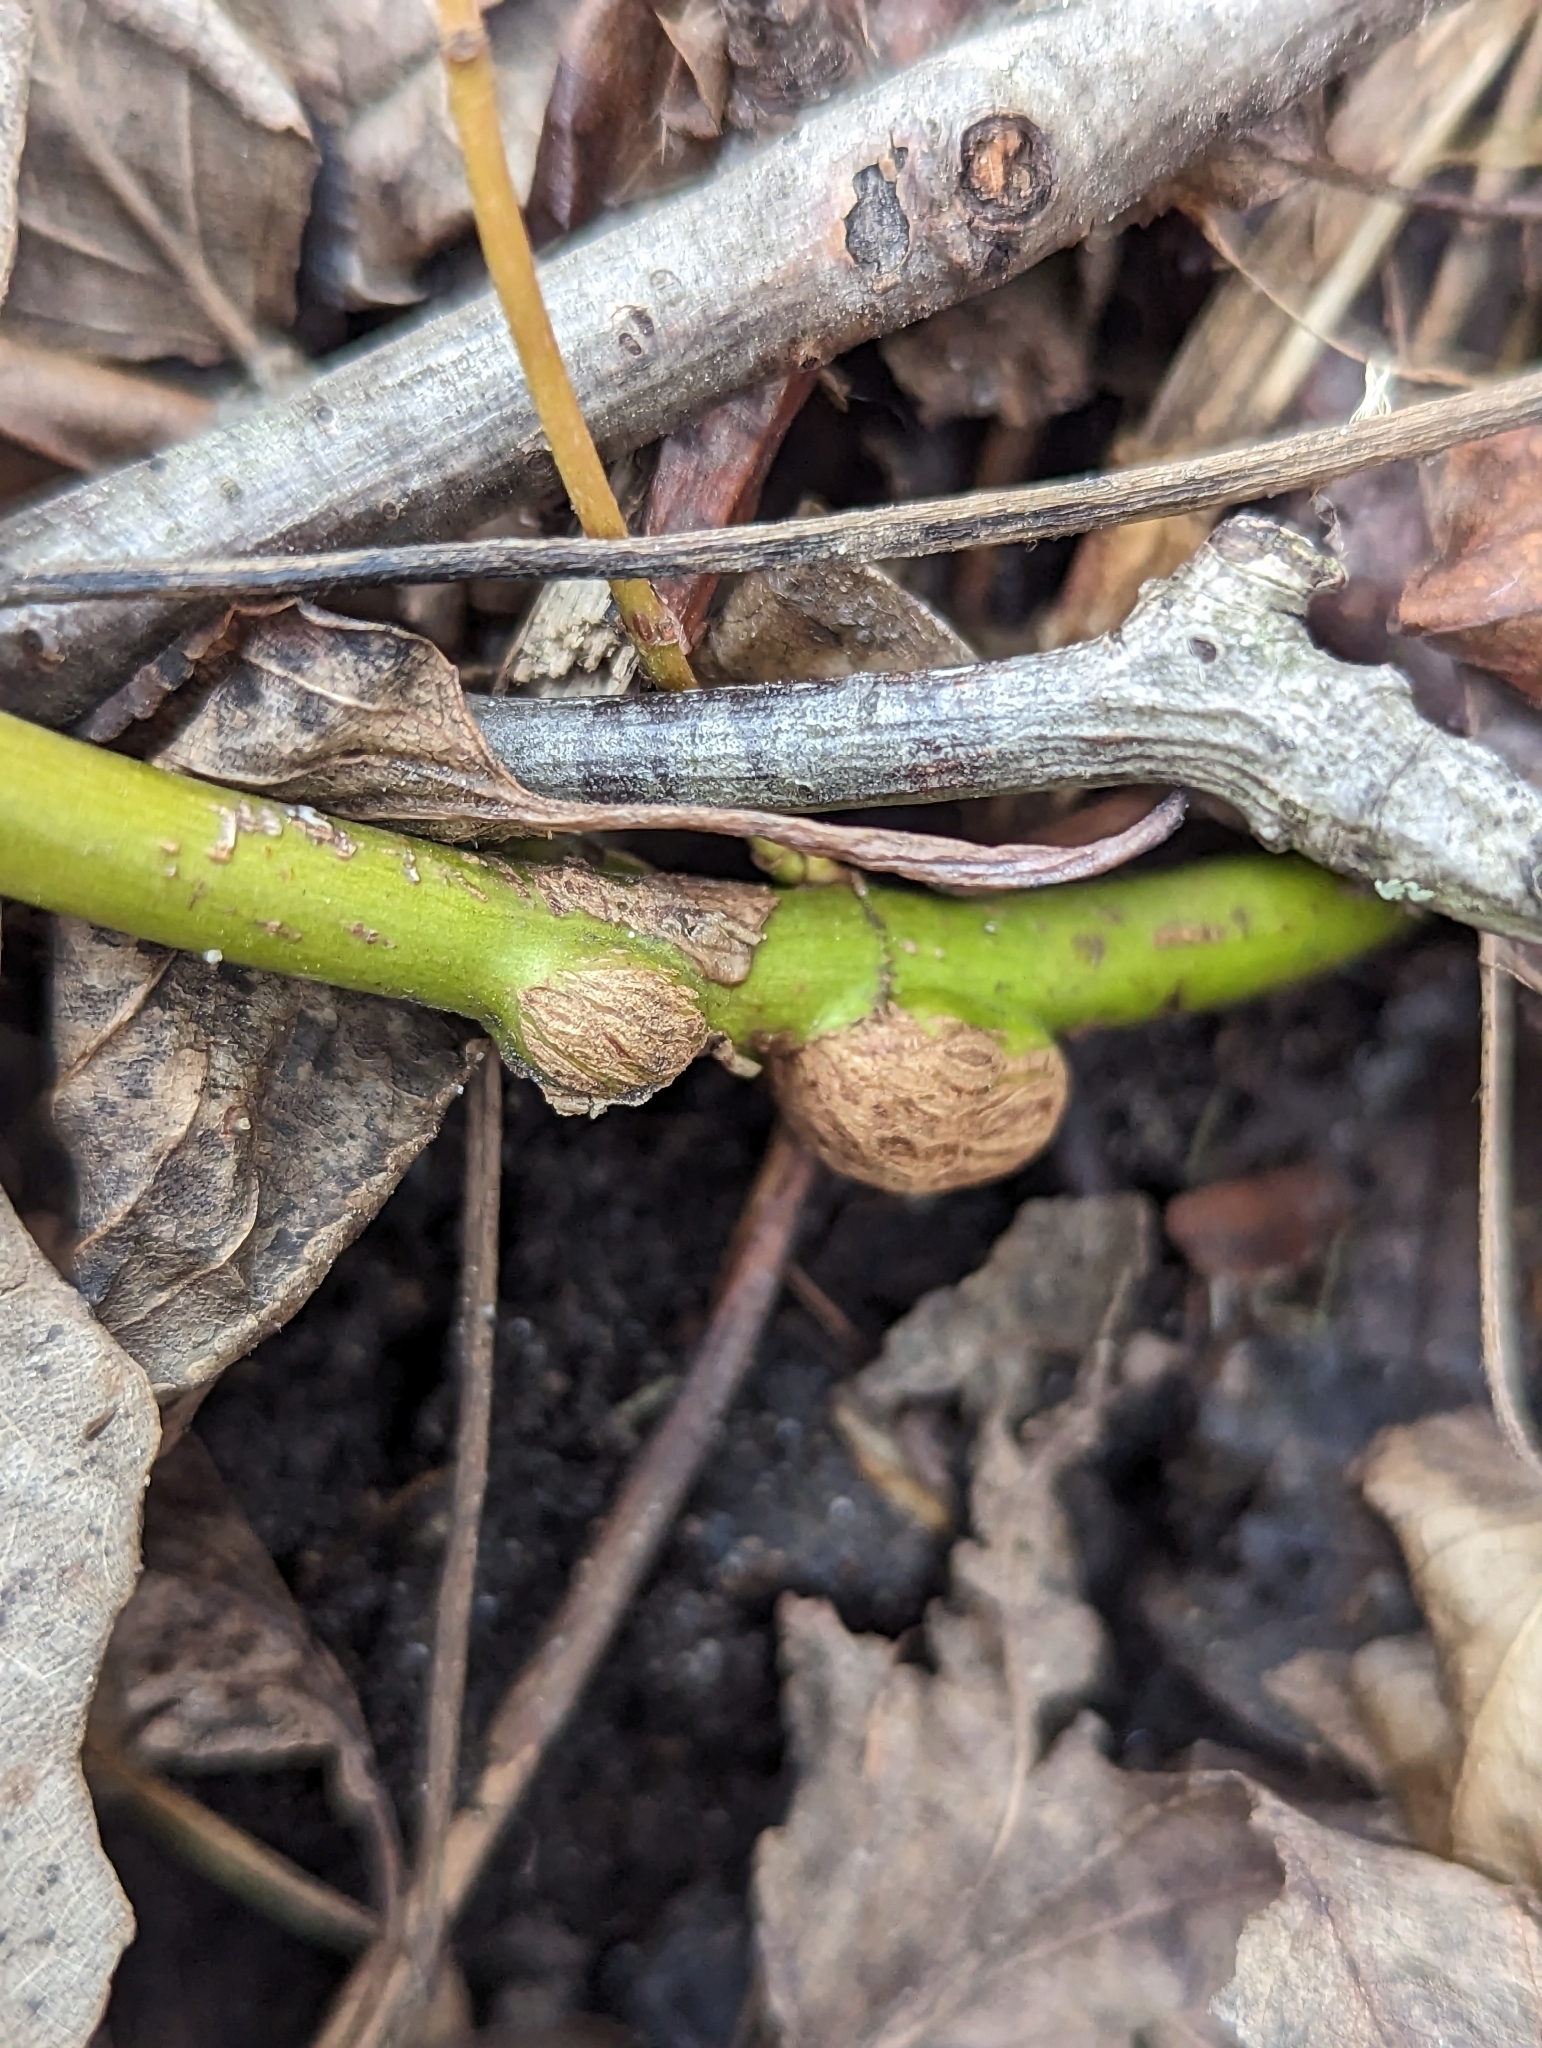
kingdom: Animalia
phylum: Arthropoda
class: Insecta
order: Diptera
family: Cecidomyiidae
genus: Neolasioptera
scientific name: Neolasioptera cornicola
